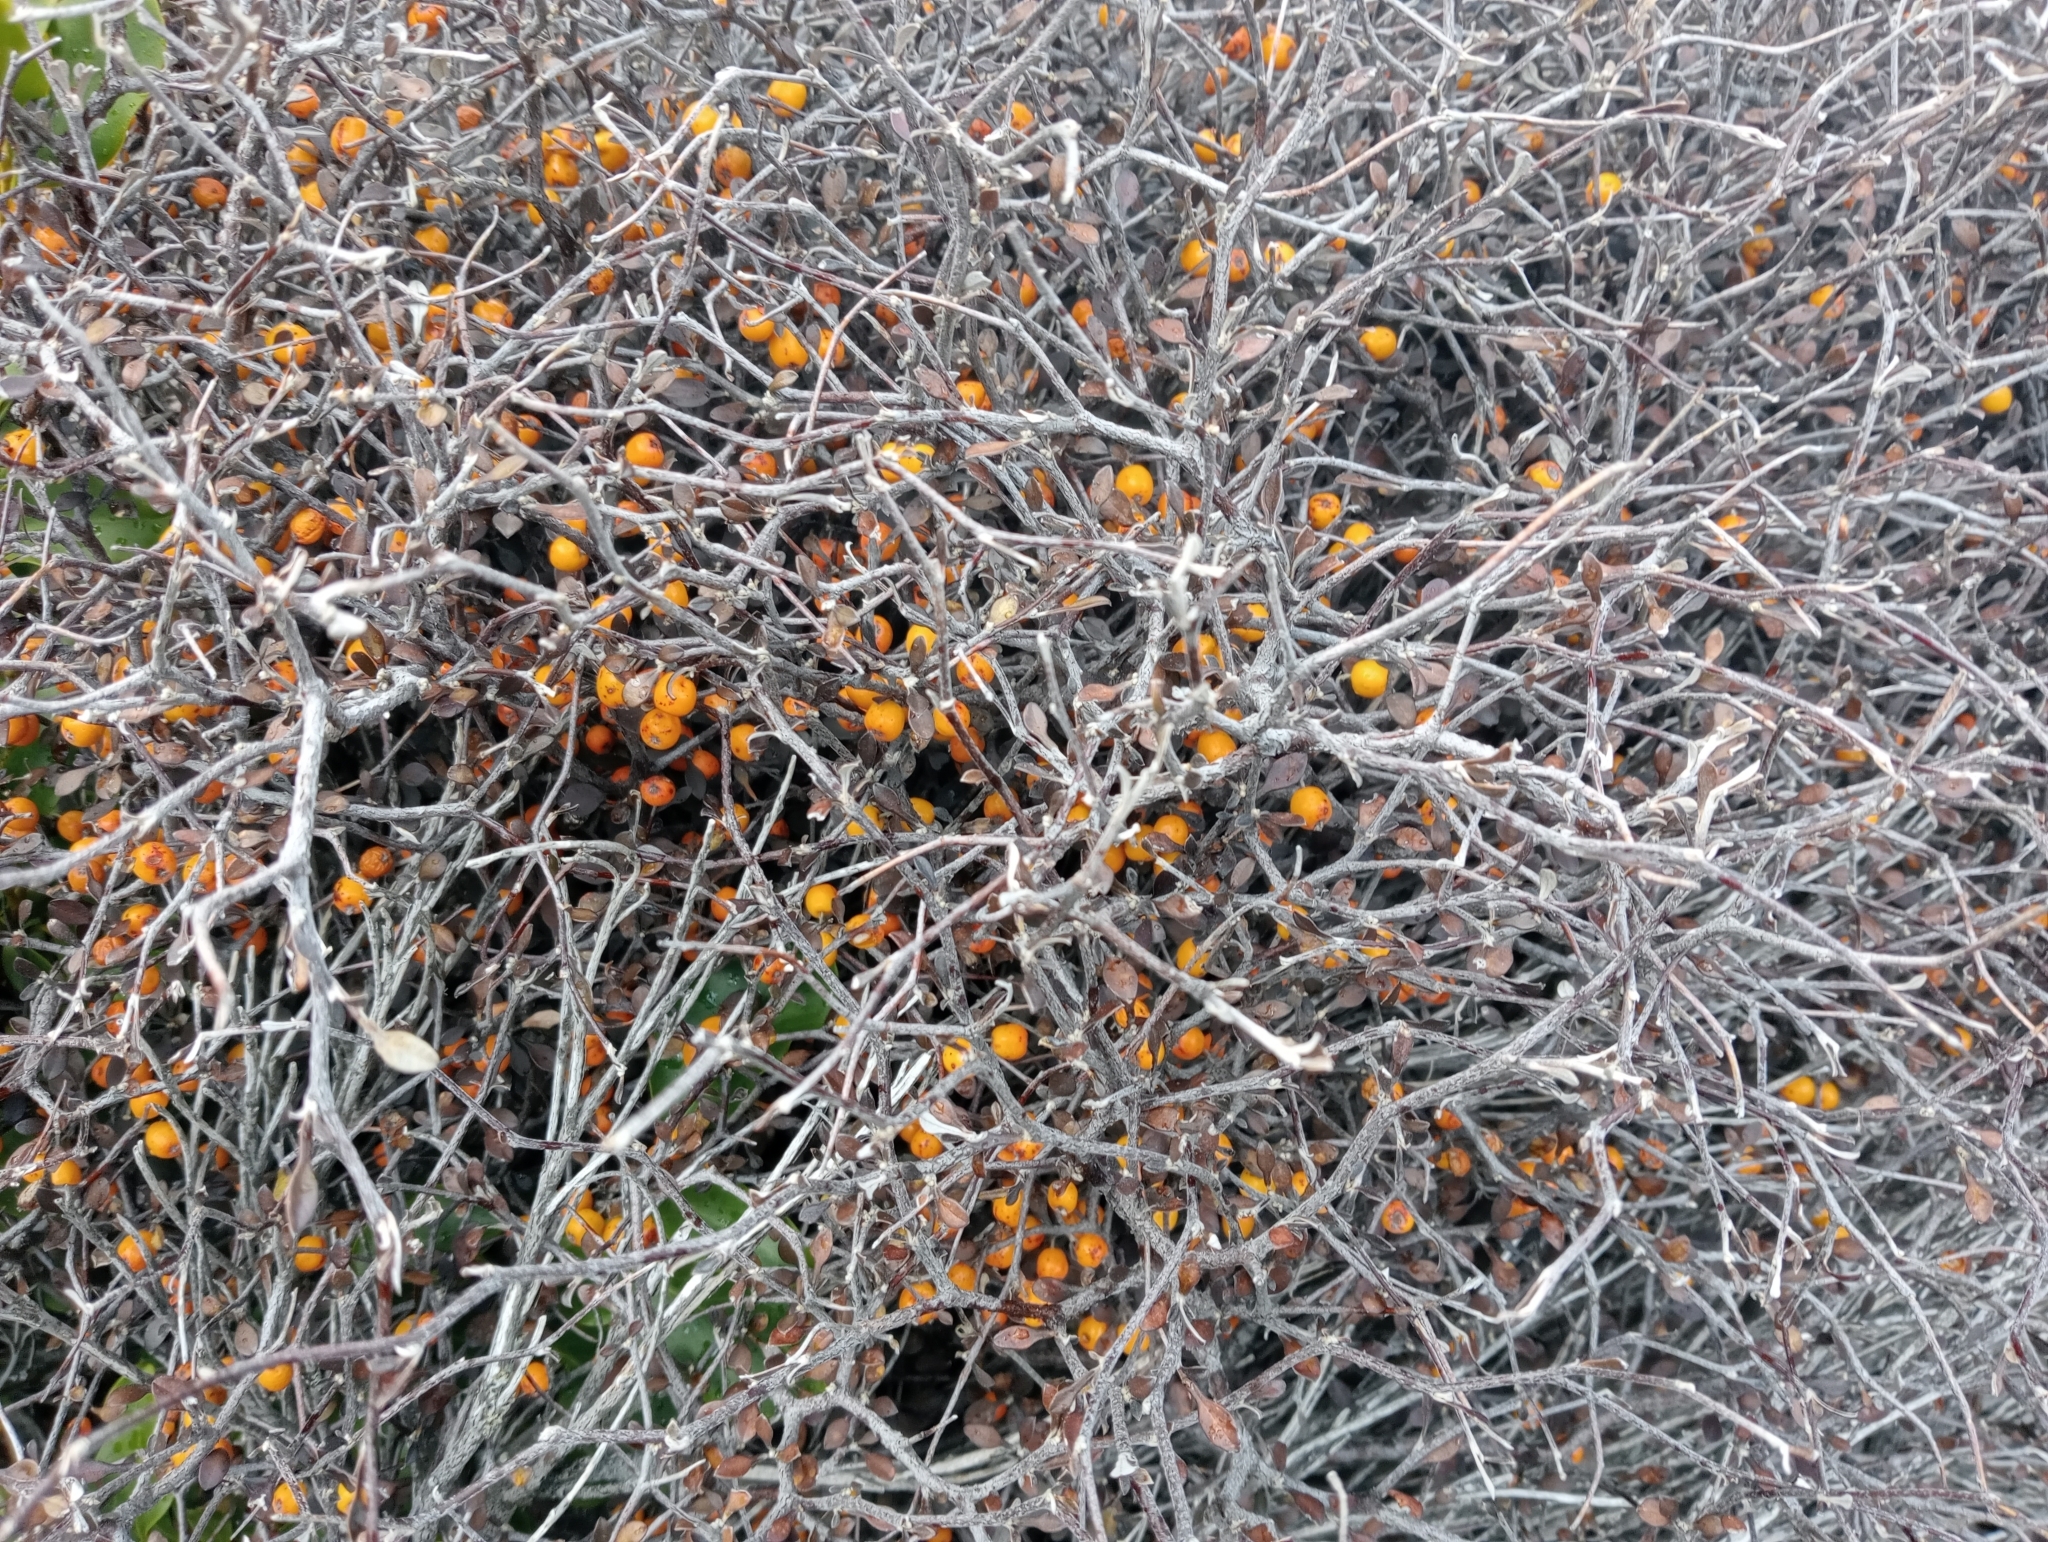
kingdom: Plantae
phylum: Tracheophyta
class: Magnoliopsida
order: Asterales
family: Argophyllaceae
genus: Corokia
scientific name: Corokia cotoneaster
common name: Wire nettingbush
